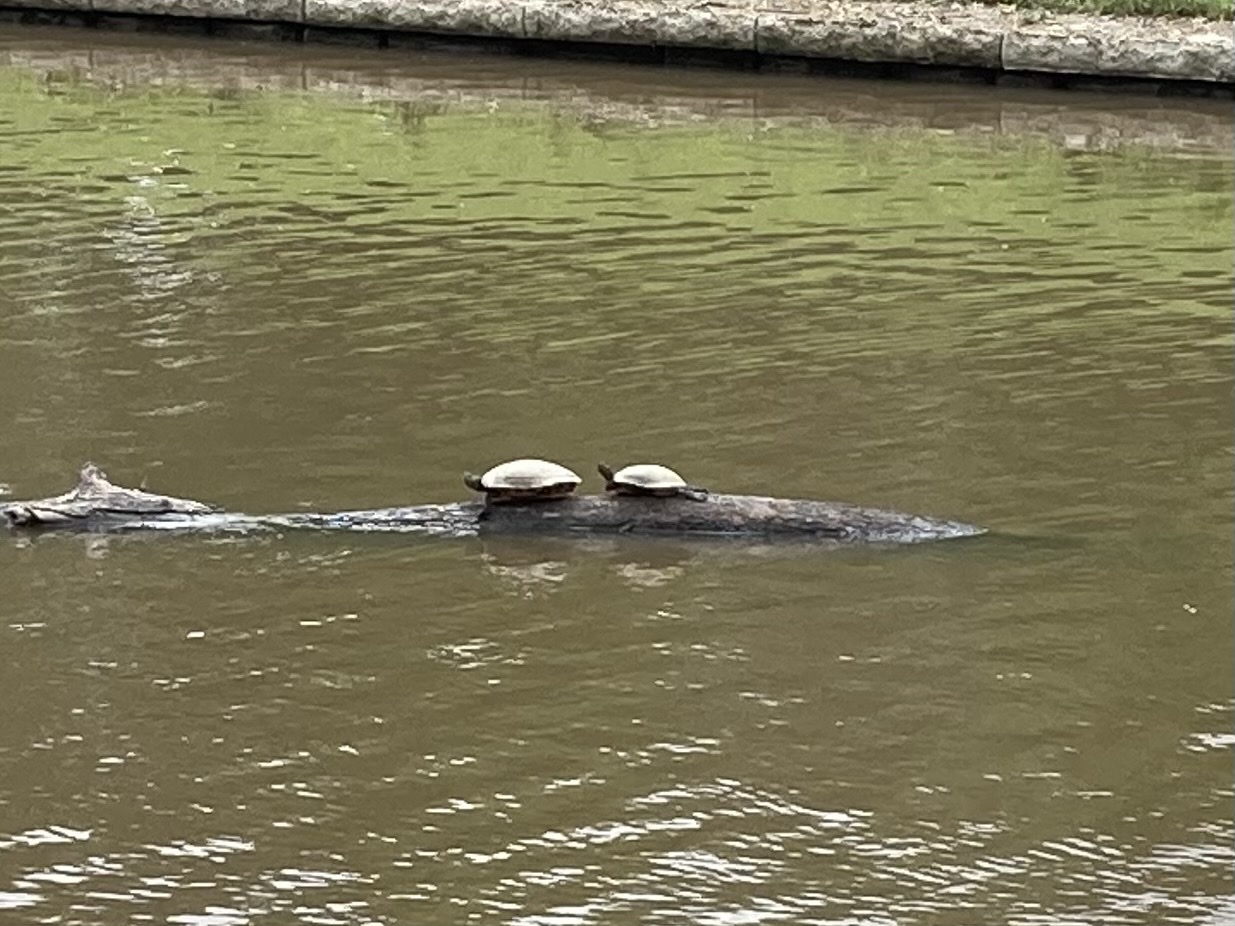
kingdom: Animalia
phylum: Chordata
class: Testudines
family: Emydidae
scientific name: Emydidae
